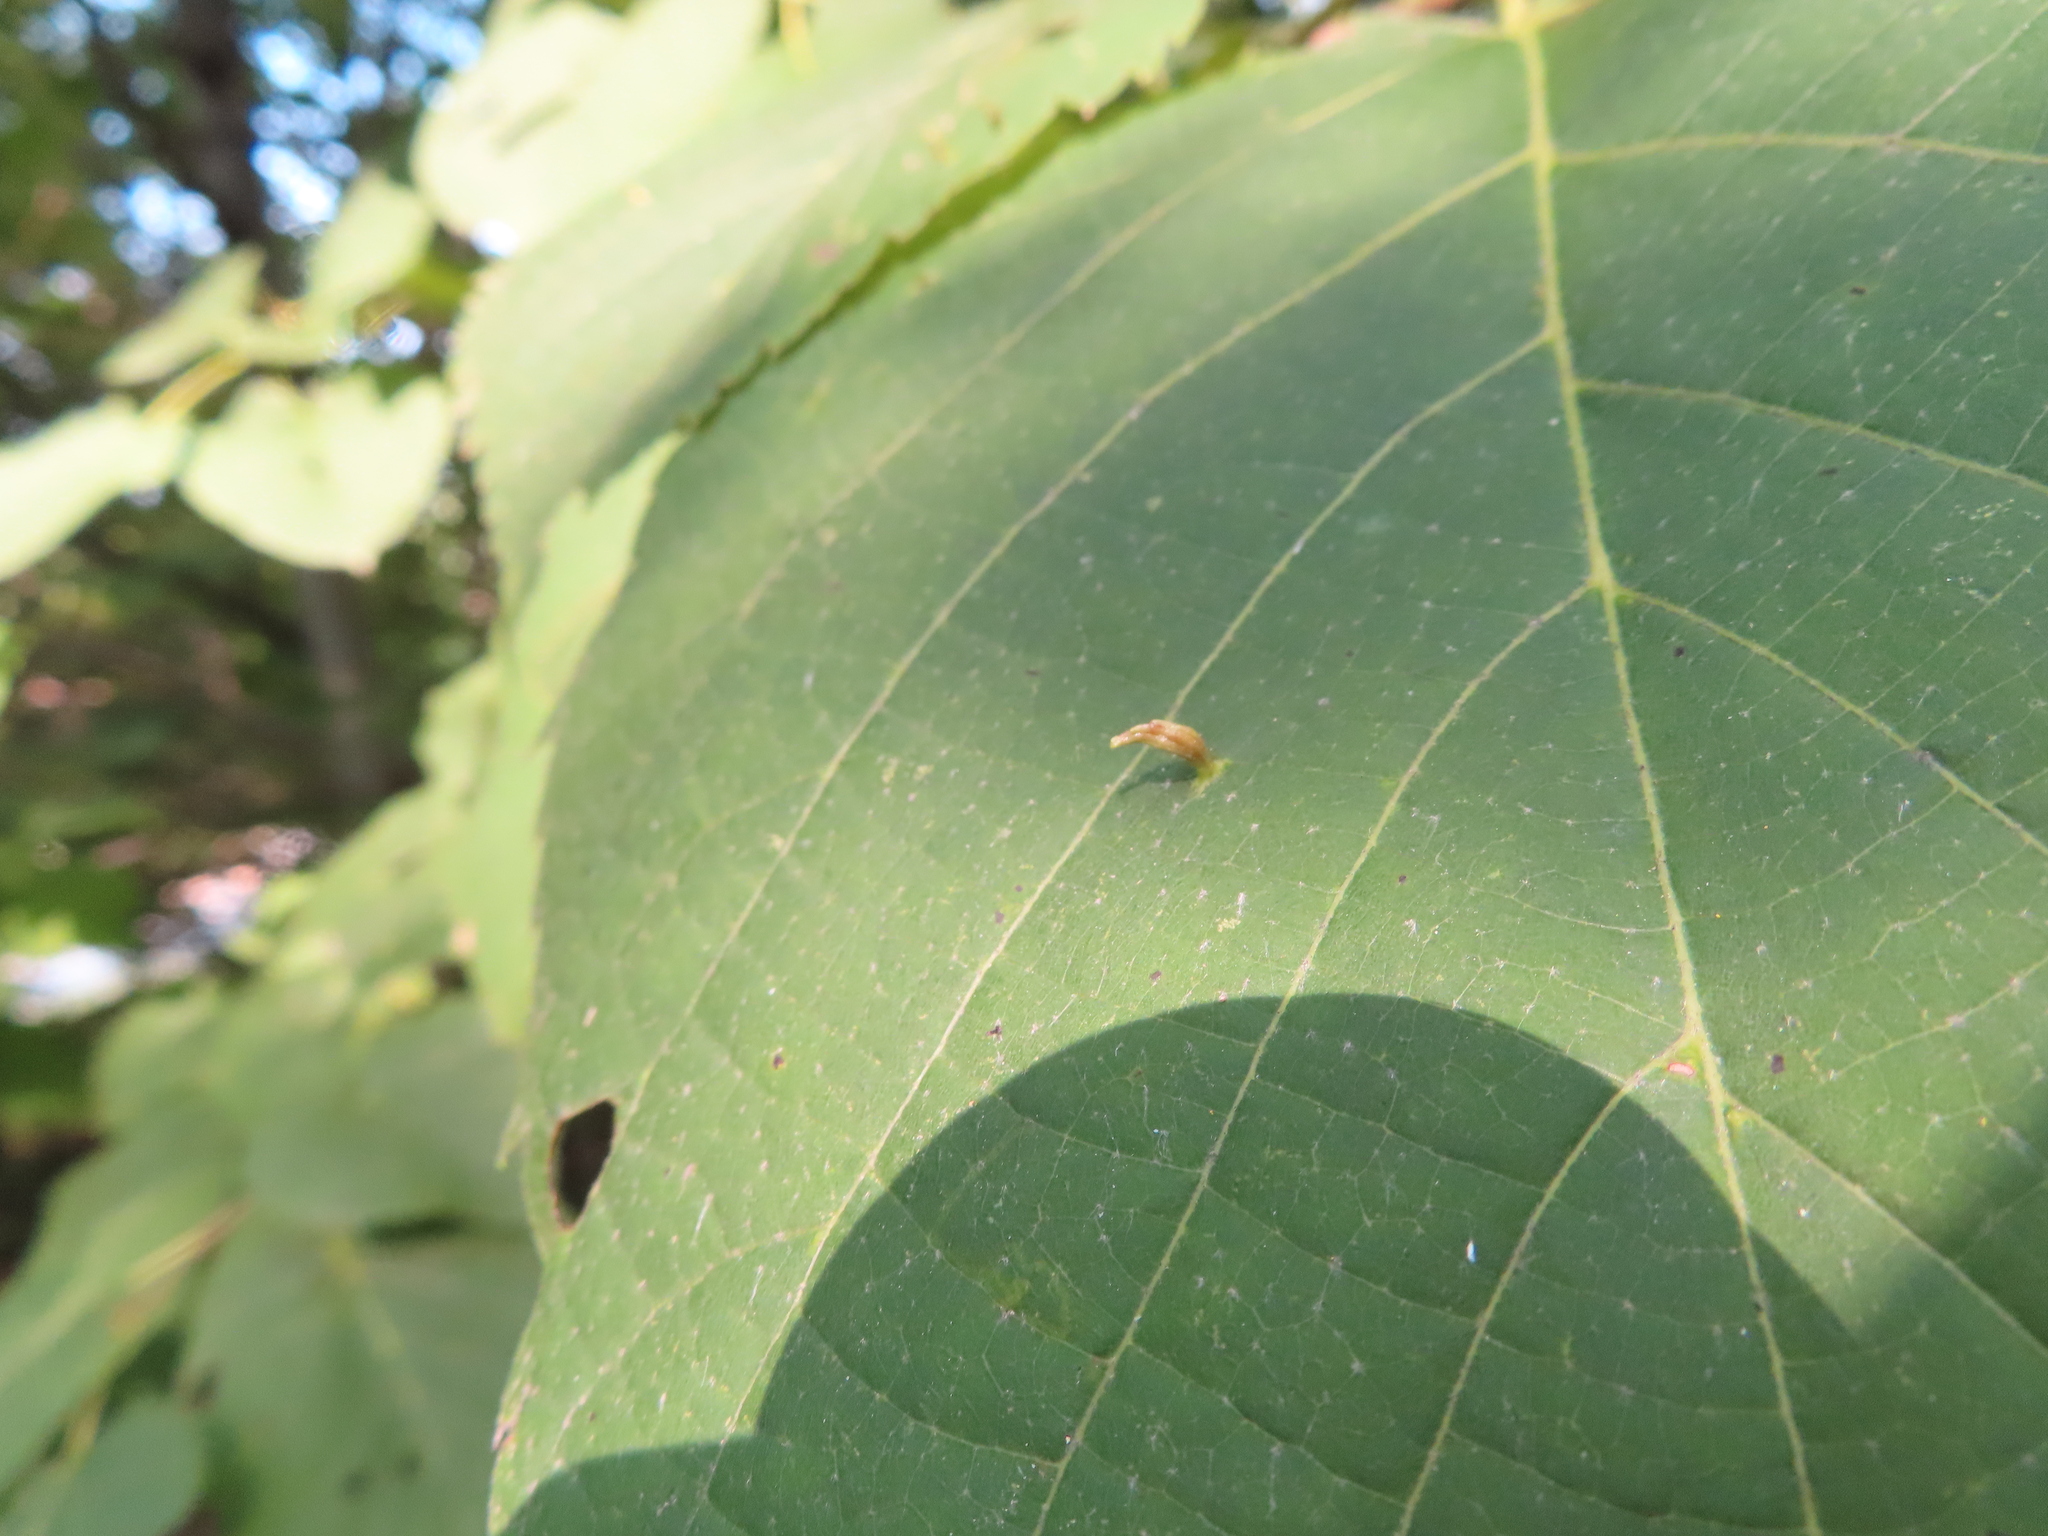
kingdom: Animalia
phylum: Arthropoda
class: Arachnida
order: Trombidiformes
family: Eriophyidae
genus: Eriophyes
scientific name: Eriophyes tiliae
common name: Red nail gall mite
